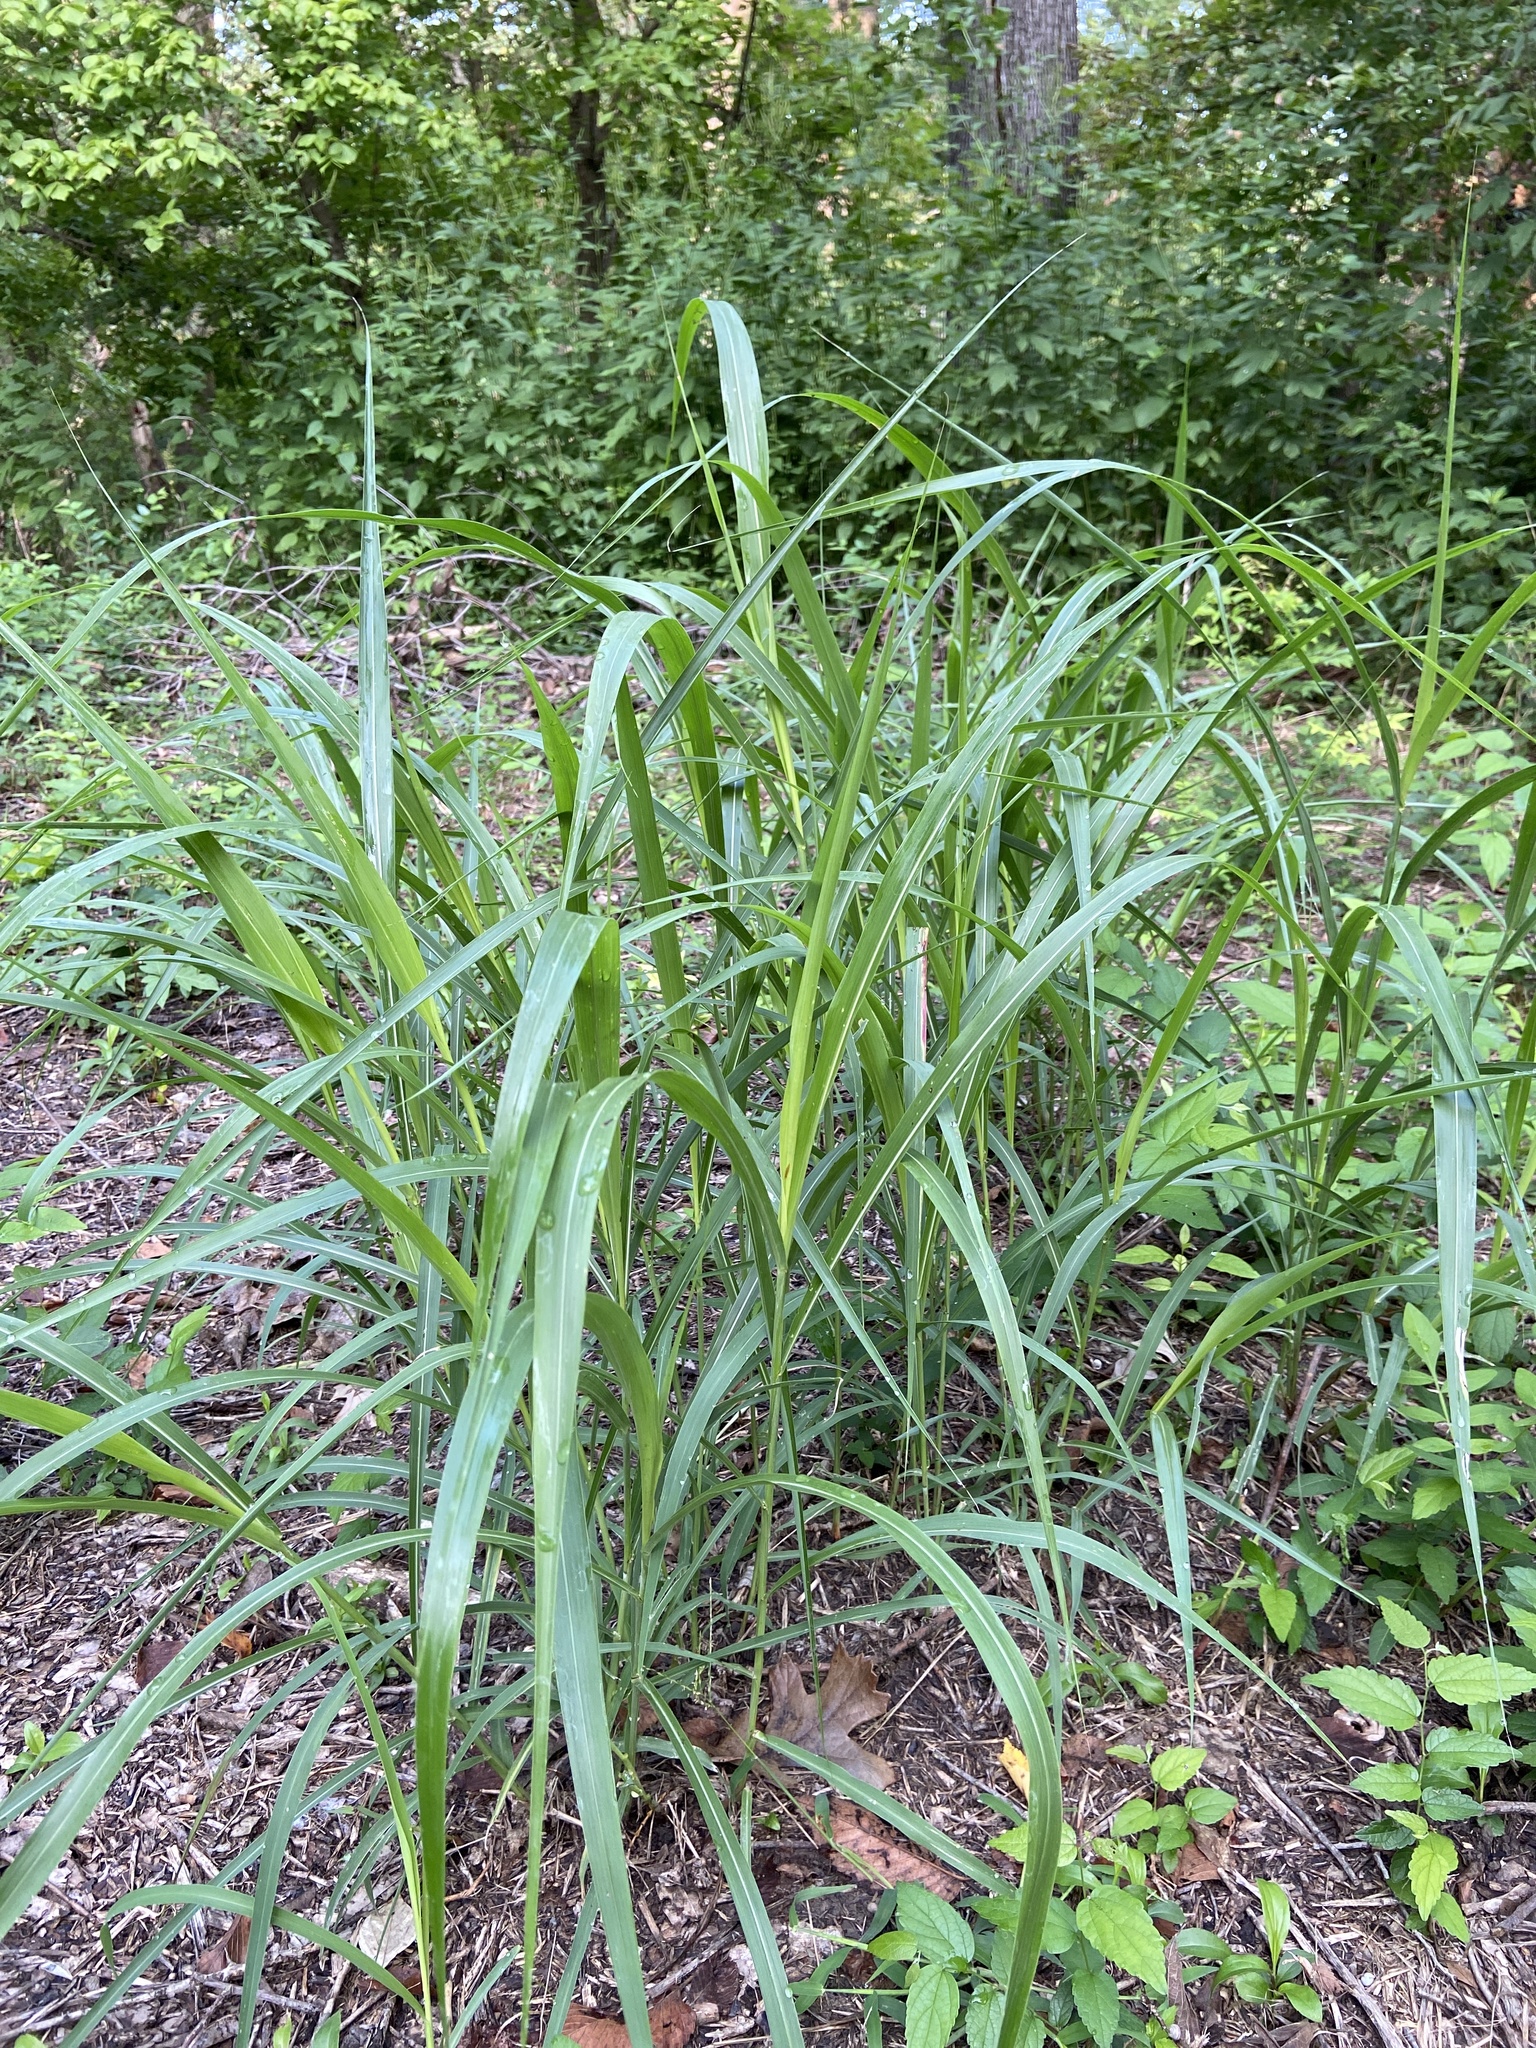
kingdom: Plantae
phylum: Tracheophyta
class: Liliopsida
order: Poales
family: Poaceae
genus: Sorghum
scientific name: Sorghum halepense
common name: Johnson-grass
